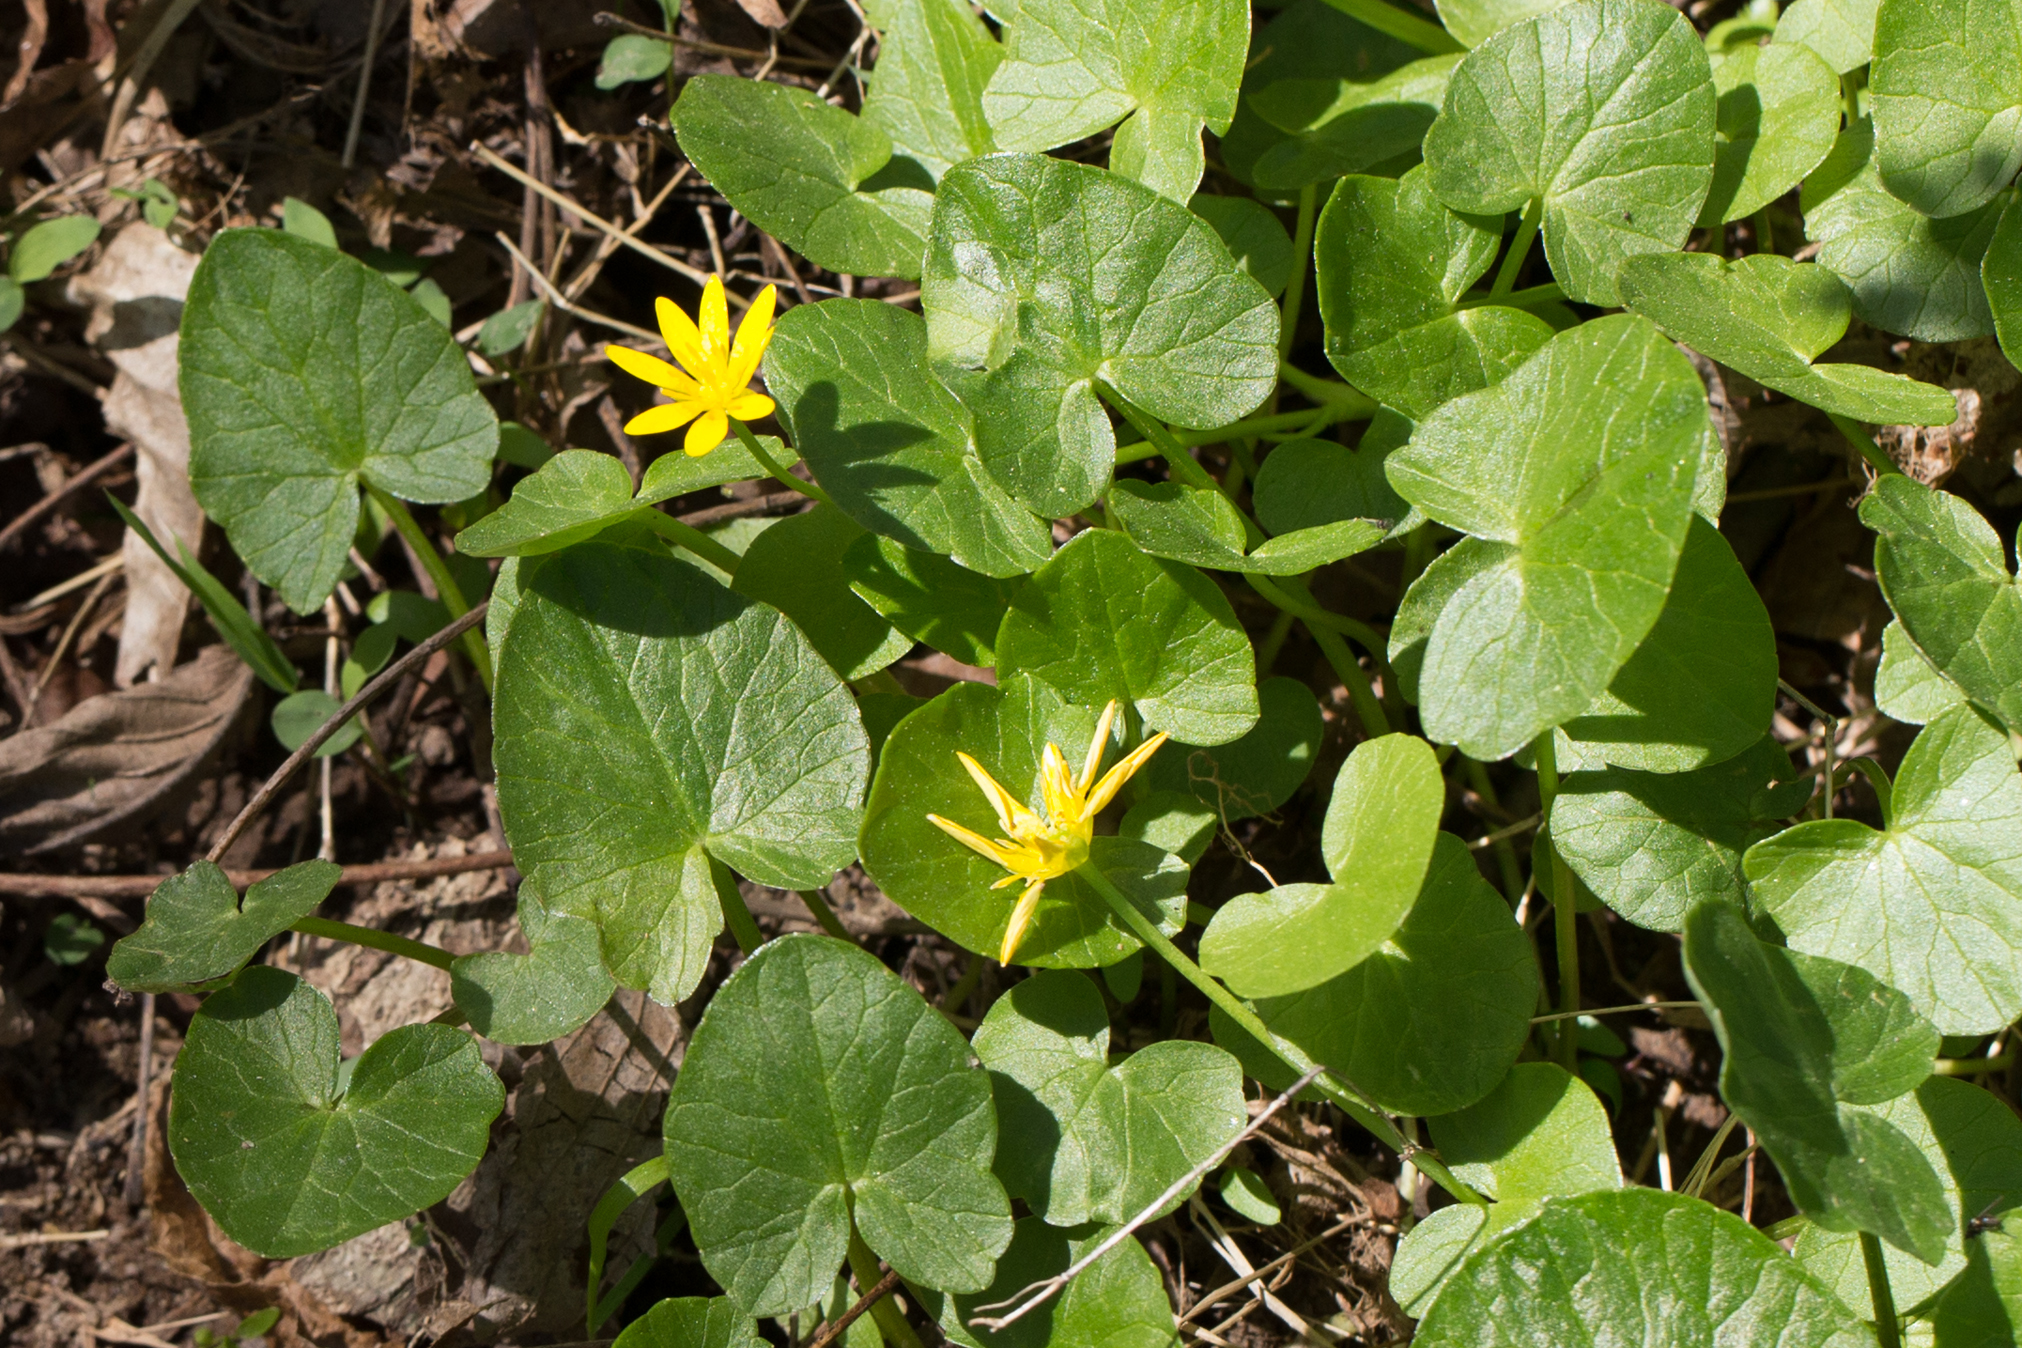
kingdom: Plantae
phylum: Tracheophyta
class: Magnoliopsida
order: Ranunculales
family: Ranunculaceae
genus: Ficaria
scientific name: Ficaria verna
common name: Lesser celandine
